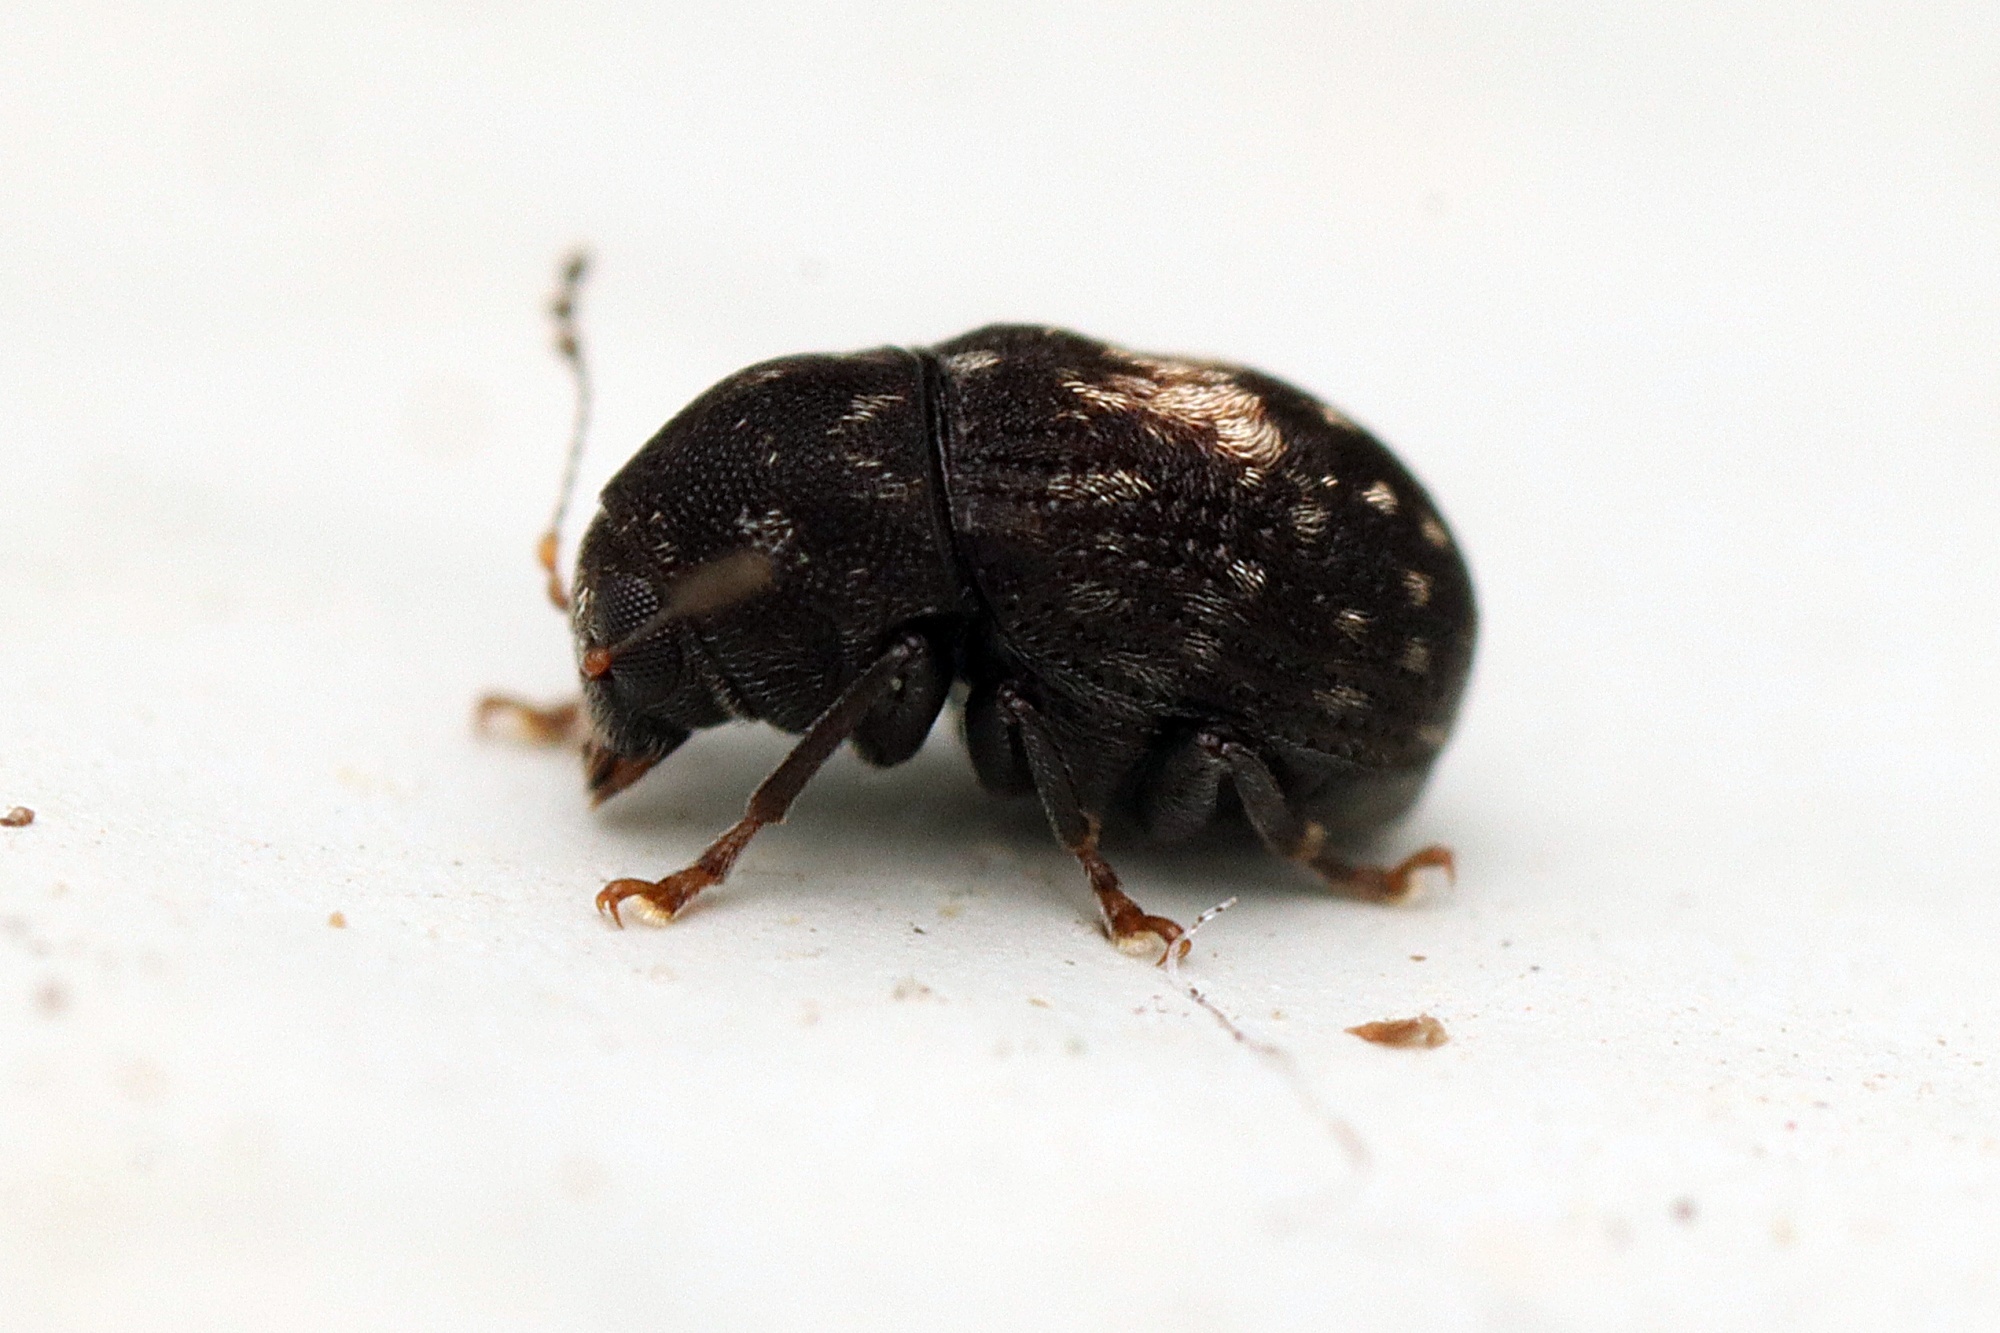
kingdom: Animalia
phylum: Arthropoda
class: Insecta
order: Coleoptera
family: Anthribidae
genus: Notochoragus
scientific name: Notochoragus
